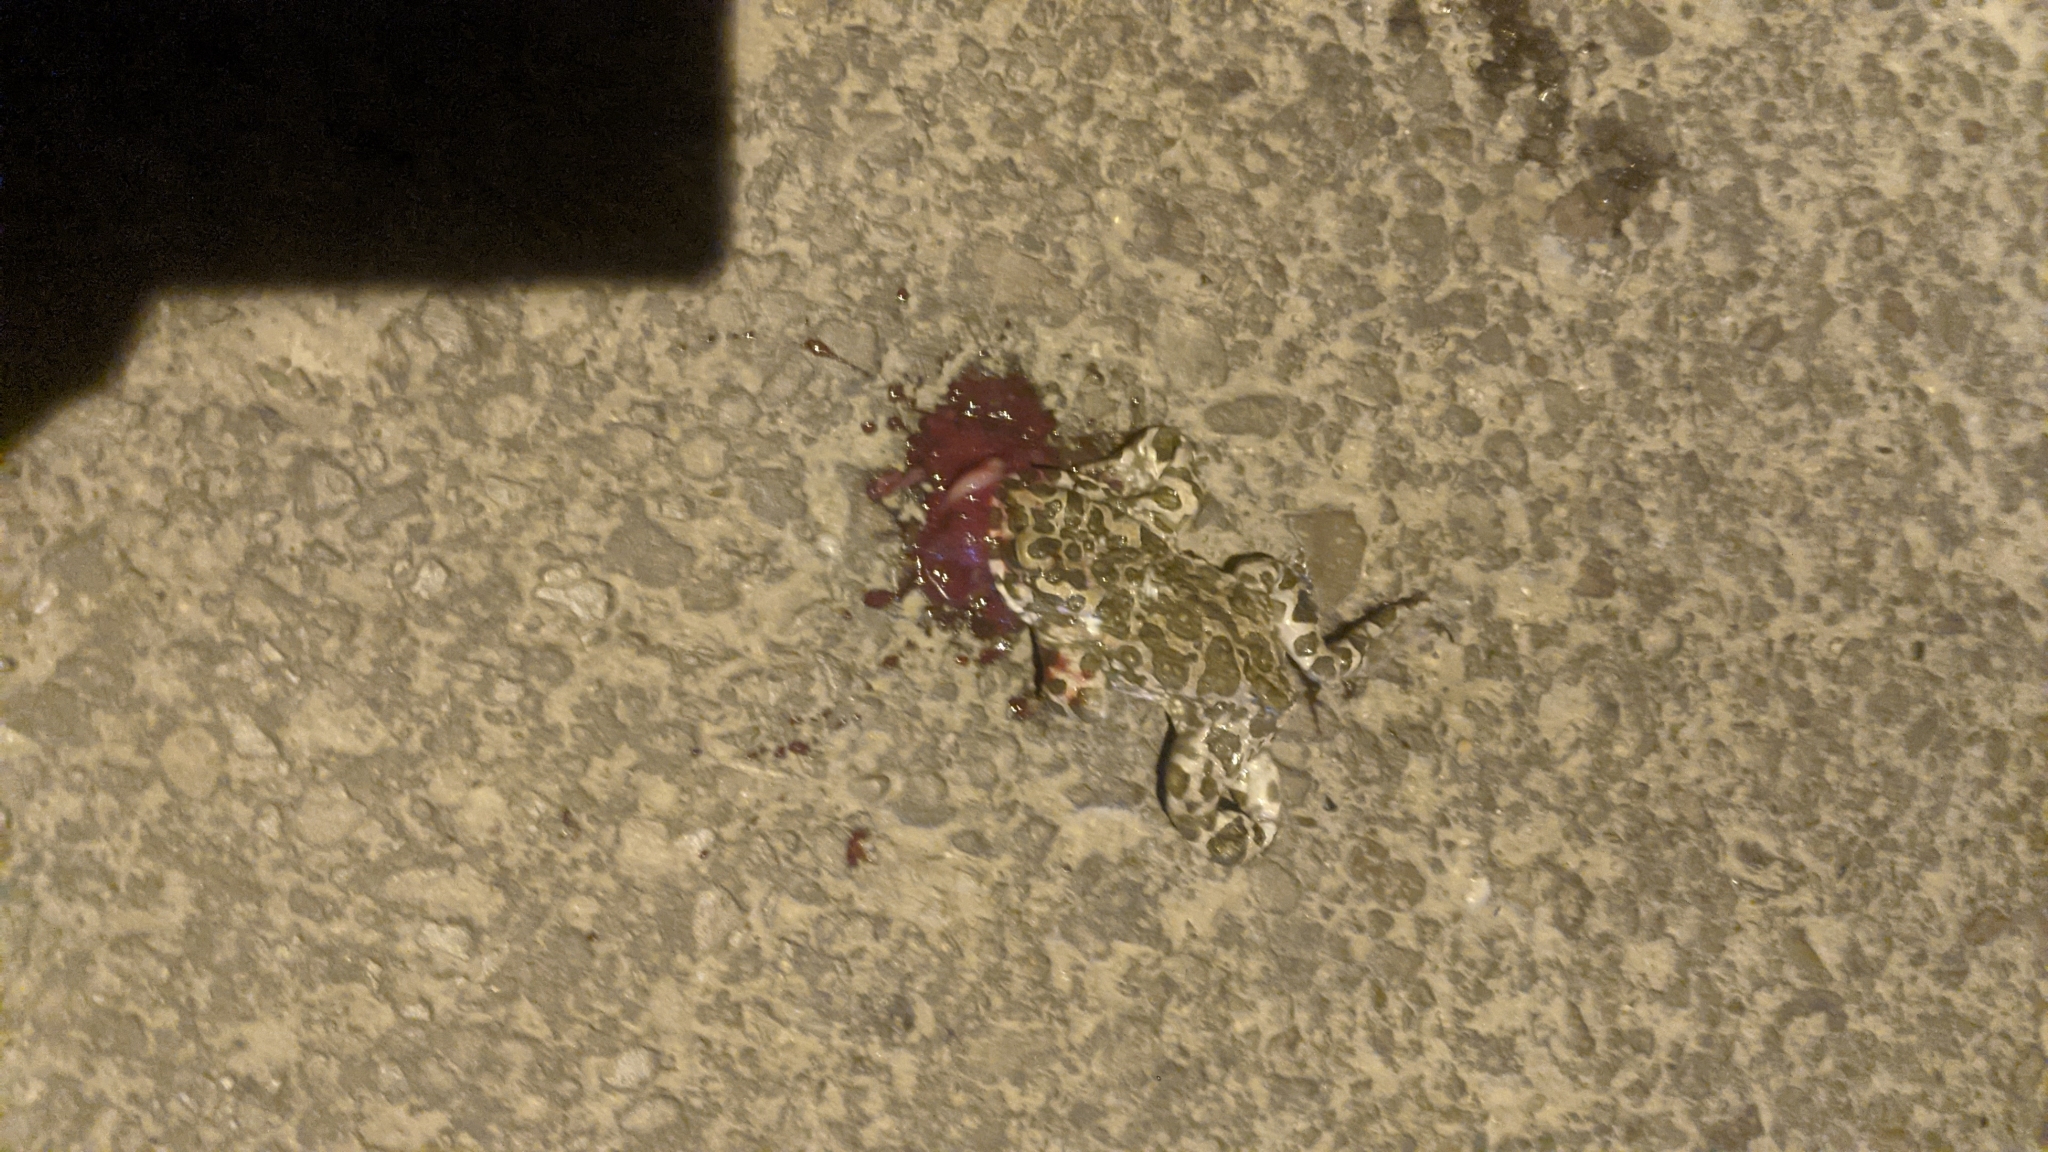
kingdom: Animalia
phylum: Chordata
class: Amphibia
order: Anura
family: Bufonidae
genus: Bufotes
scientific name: Bufotes viridis
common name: European green toad
